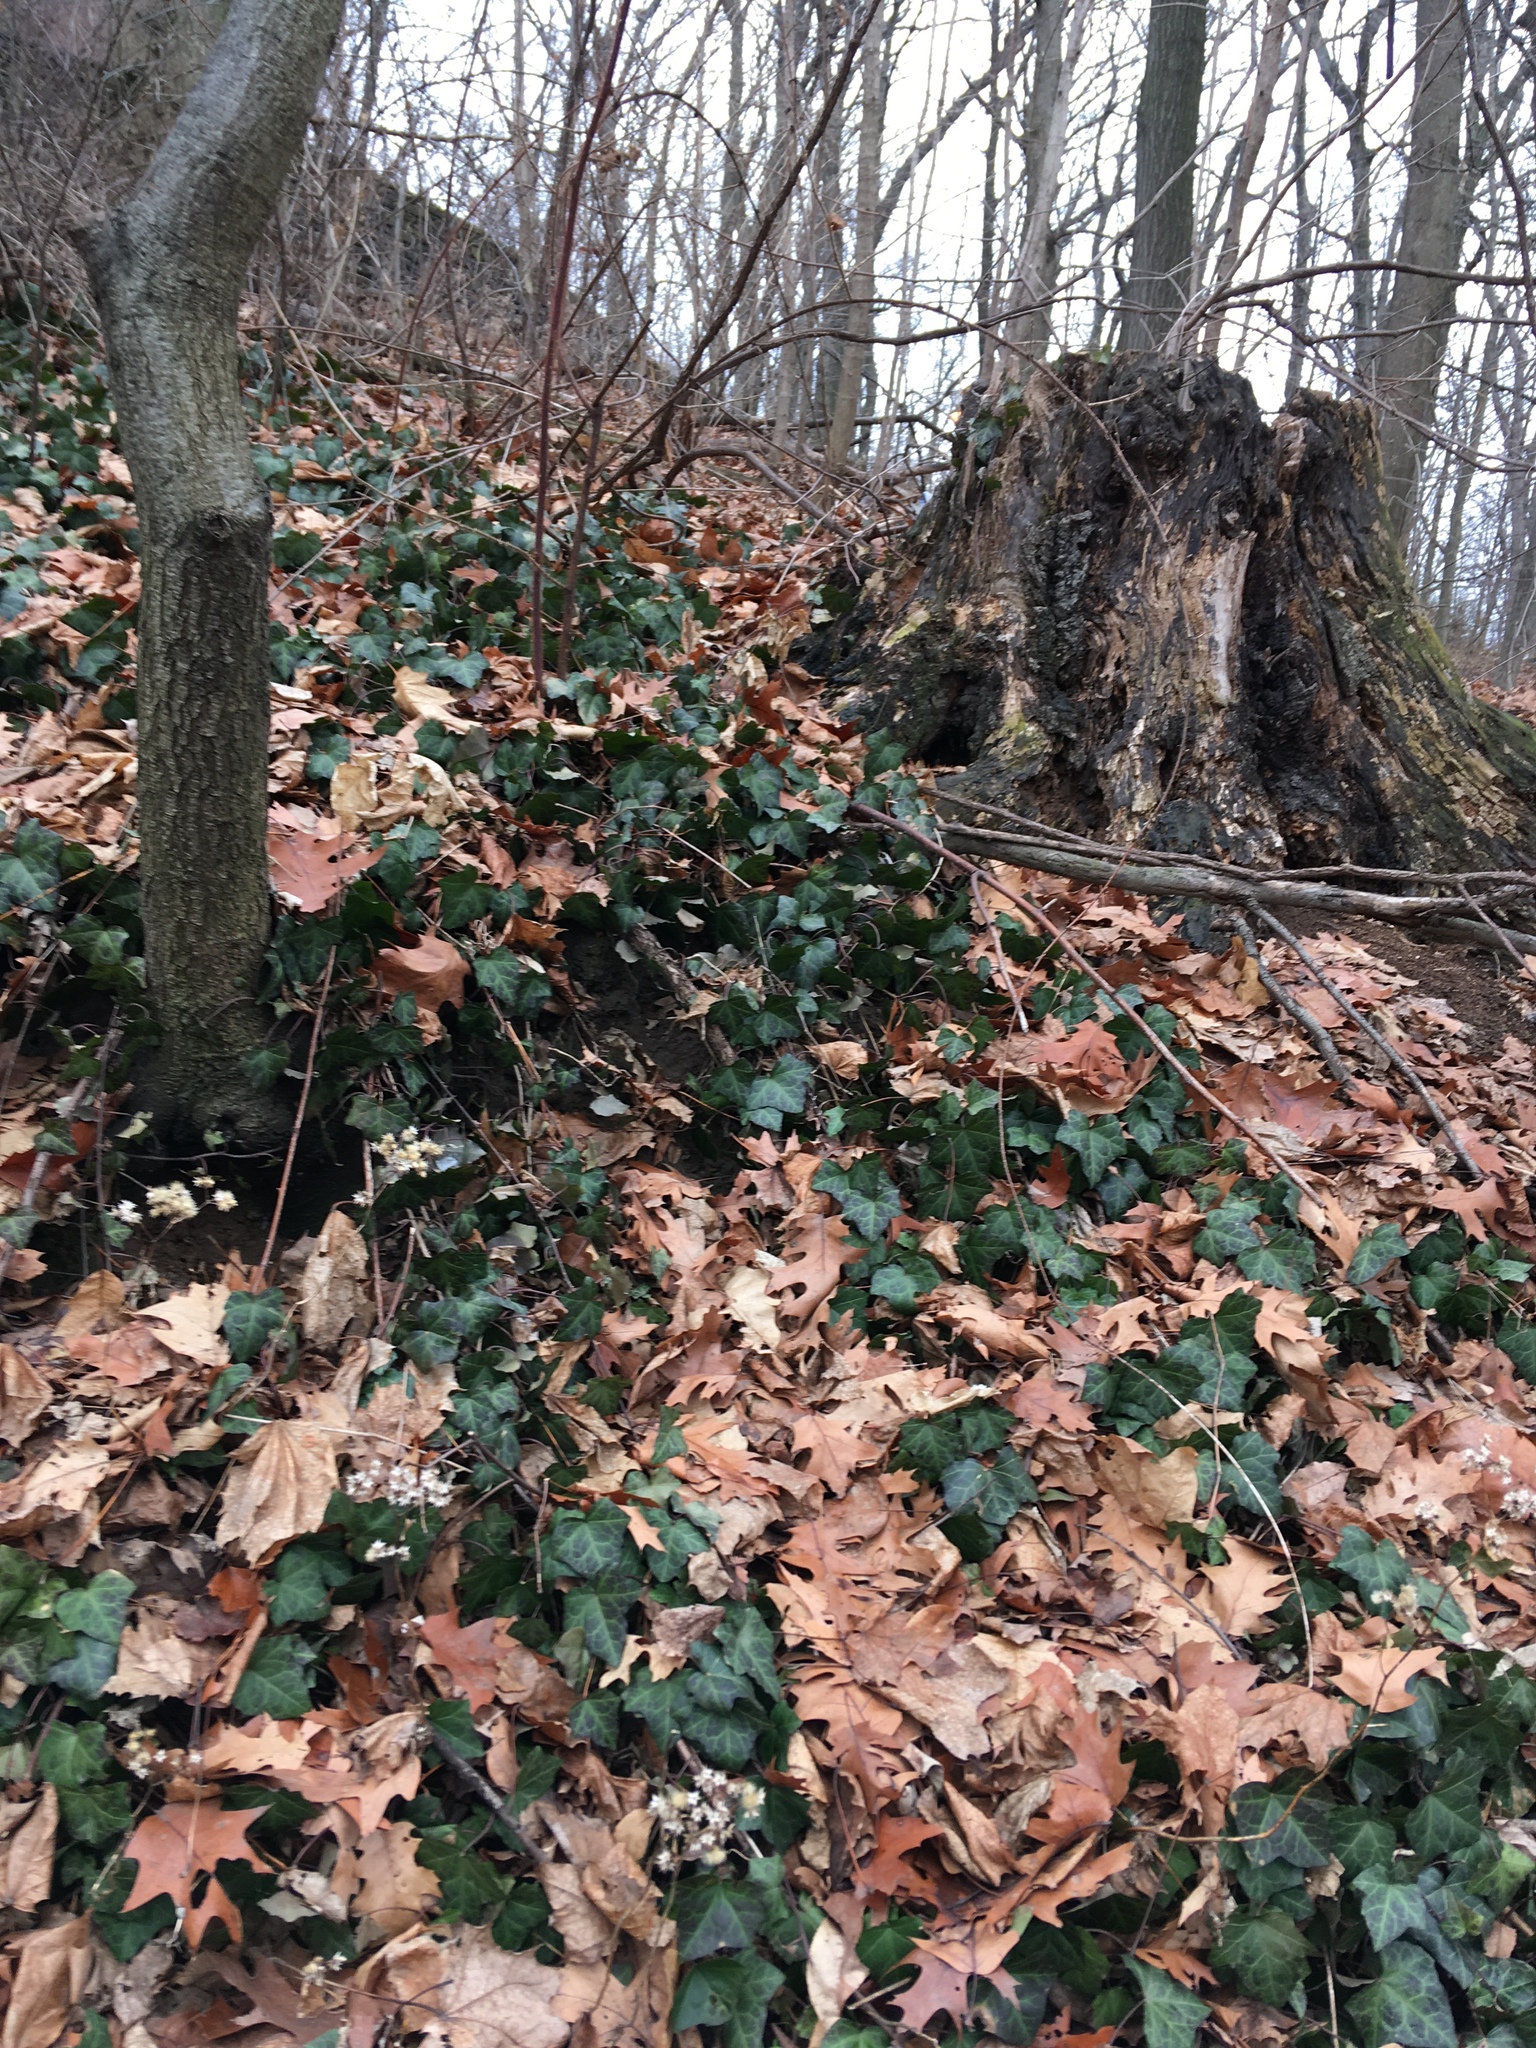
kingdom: Plantae
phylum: Tracheophyta
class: Magnoliopsida
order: Apiales
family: Araliaceae
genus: Hedera
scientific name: Hedera helix
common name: Ivy
